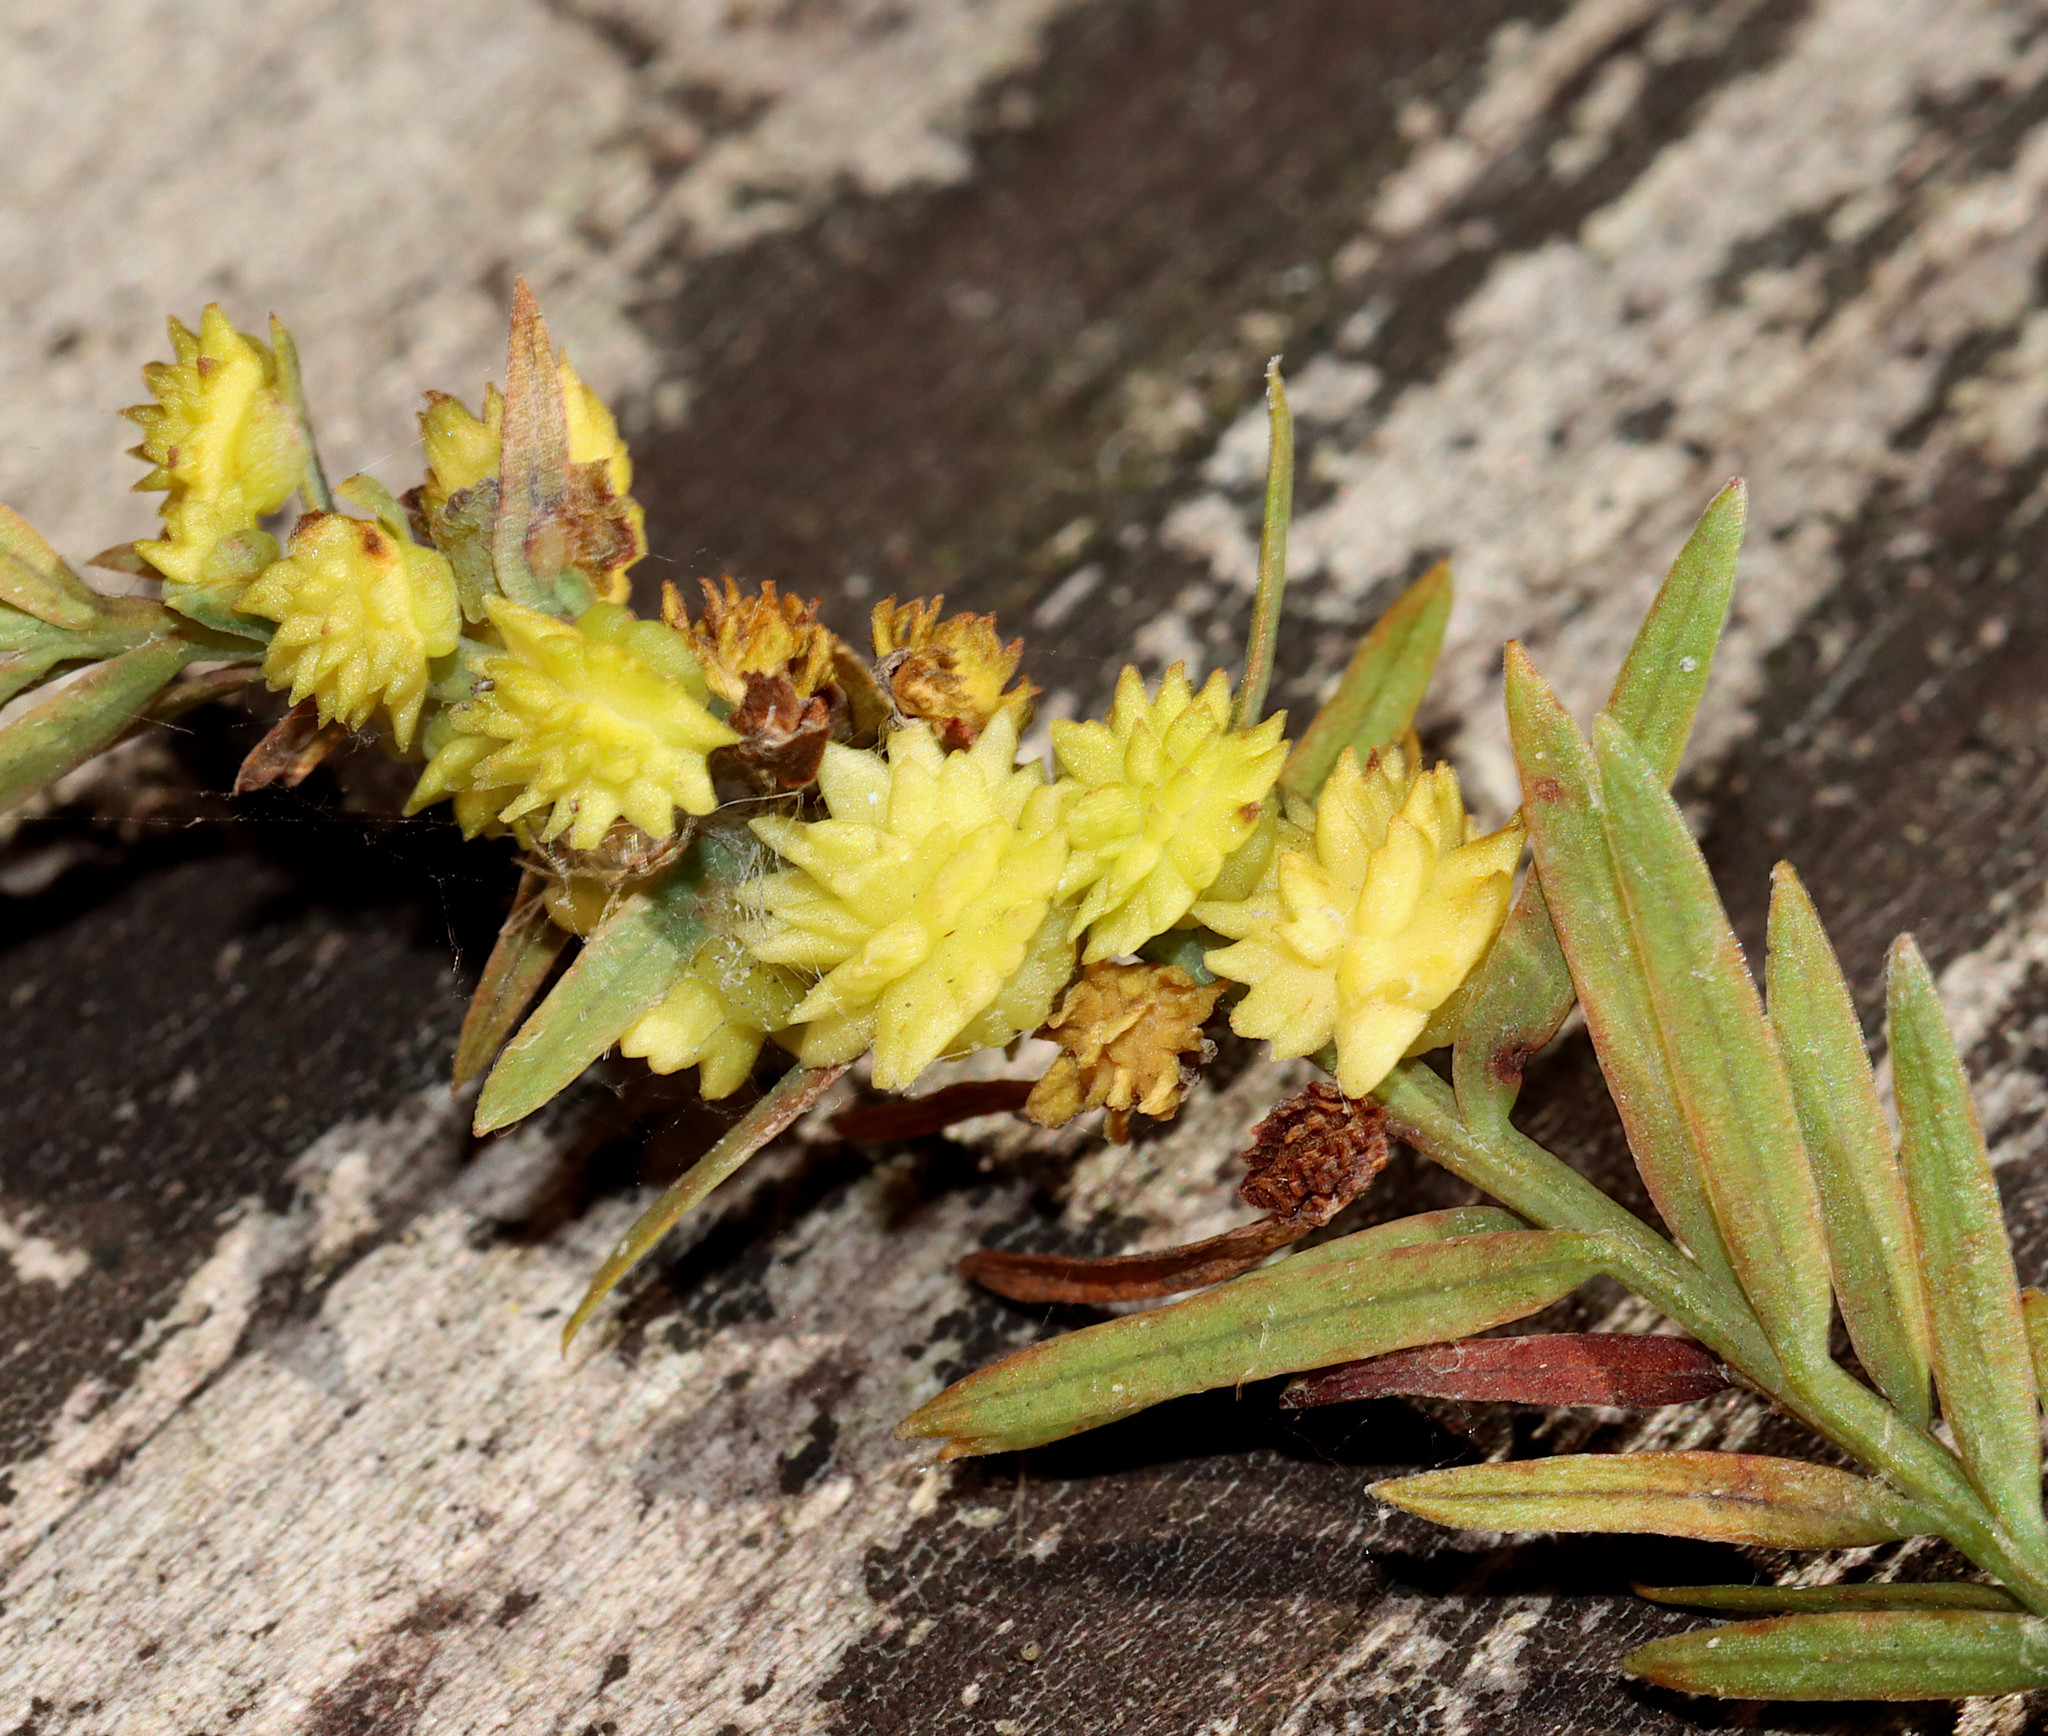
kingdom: Animalia
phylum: Arthropoda
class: Insecta
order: Diptera
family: Cecidomyiidae
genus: Taxodiomyia
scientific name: Taxodiomyia
